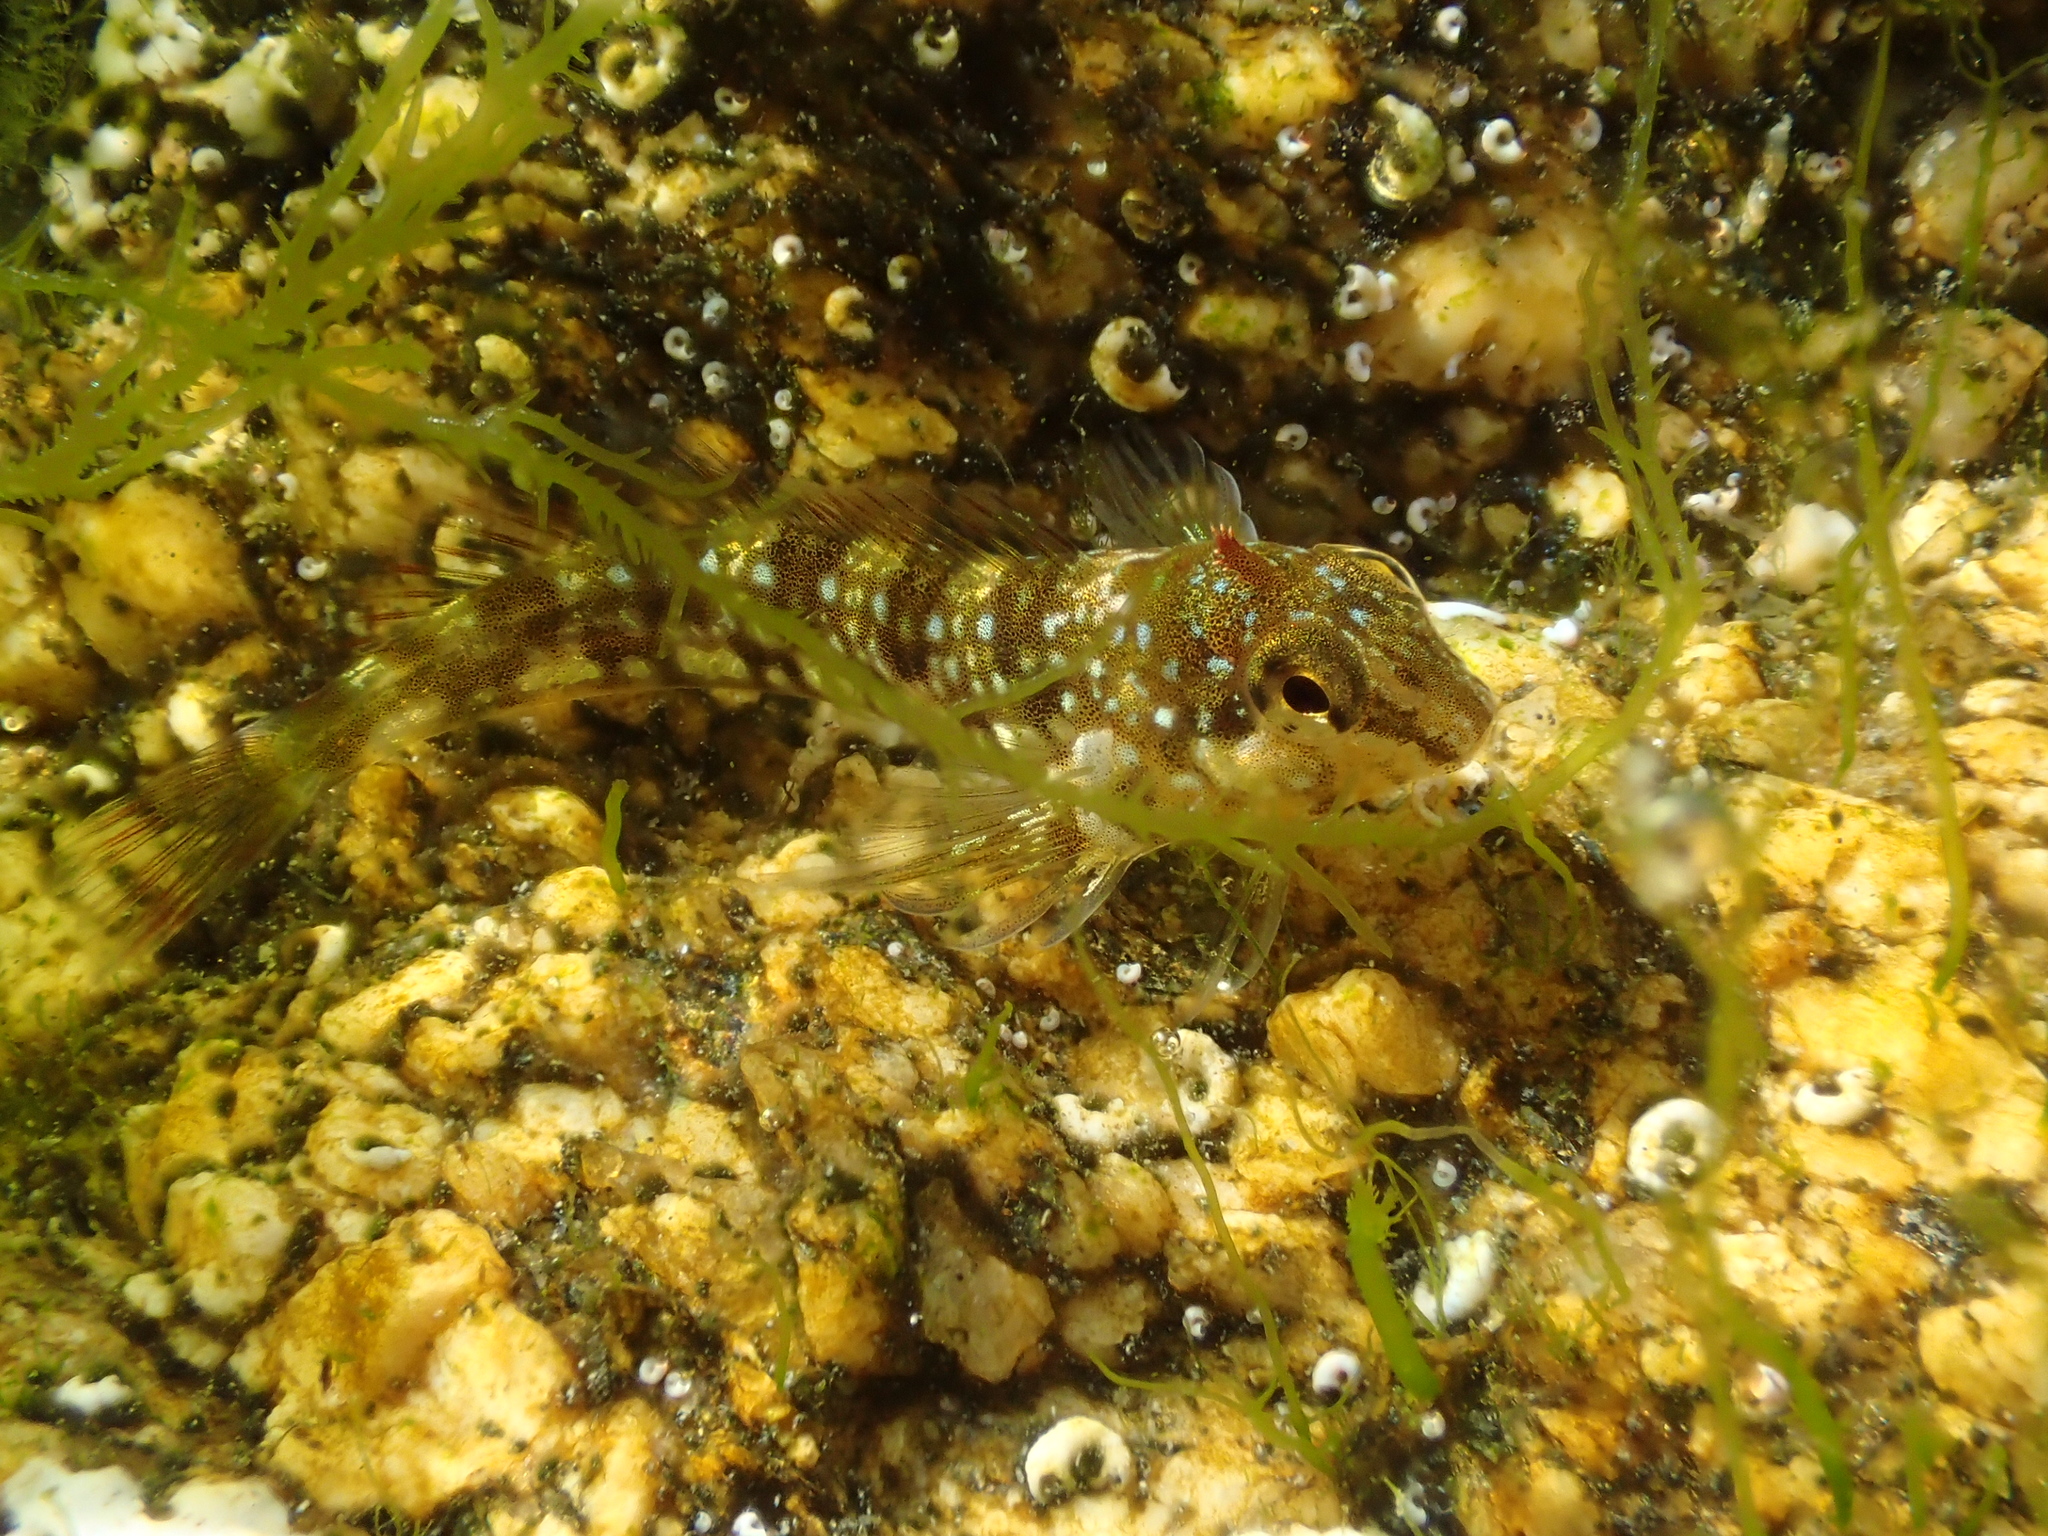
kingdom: Animalia
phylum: Chordata
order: Perciformes
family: Blenniidae
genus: Coryphoblennius
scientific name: Coryphoblennius galerita
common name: Montagu's blenny
